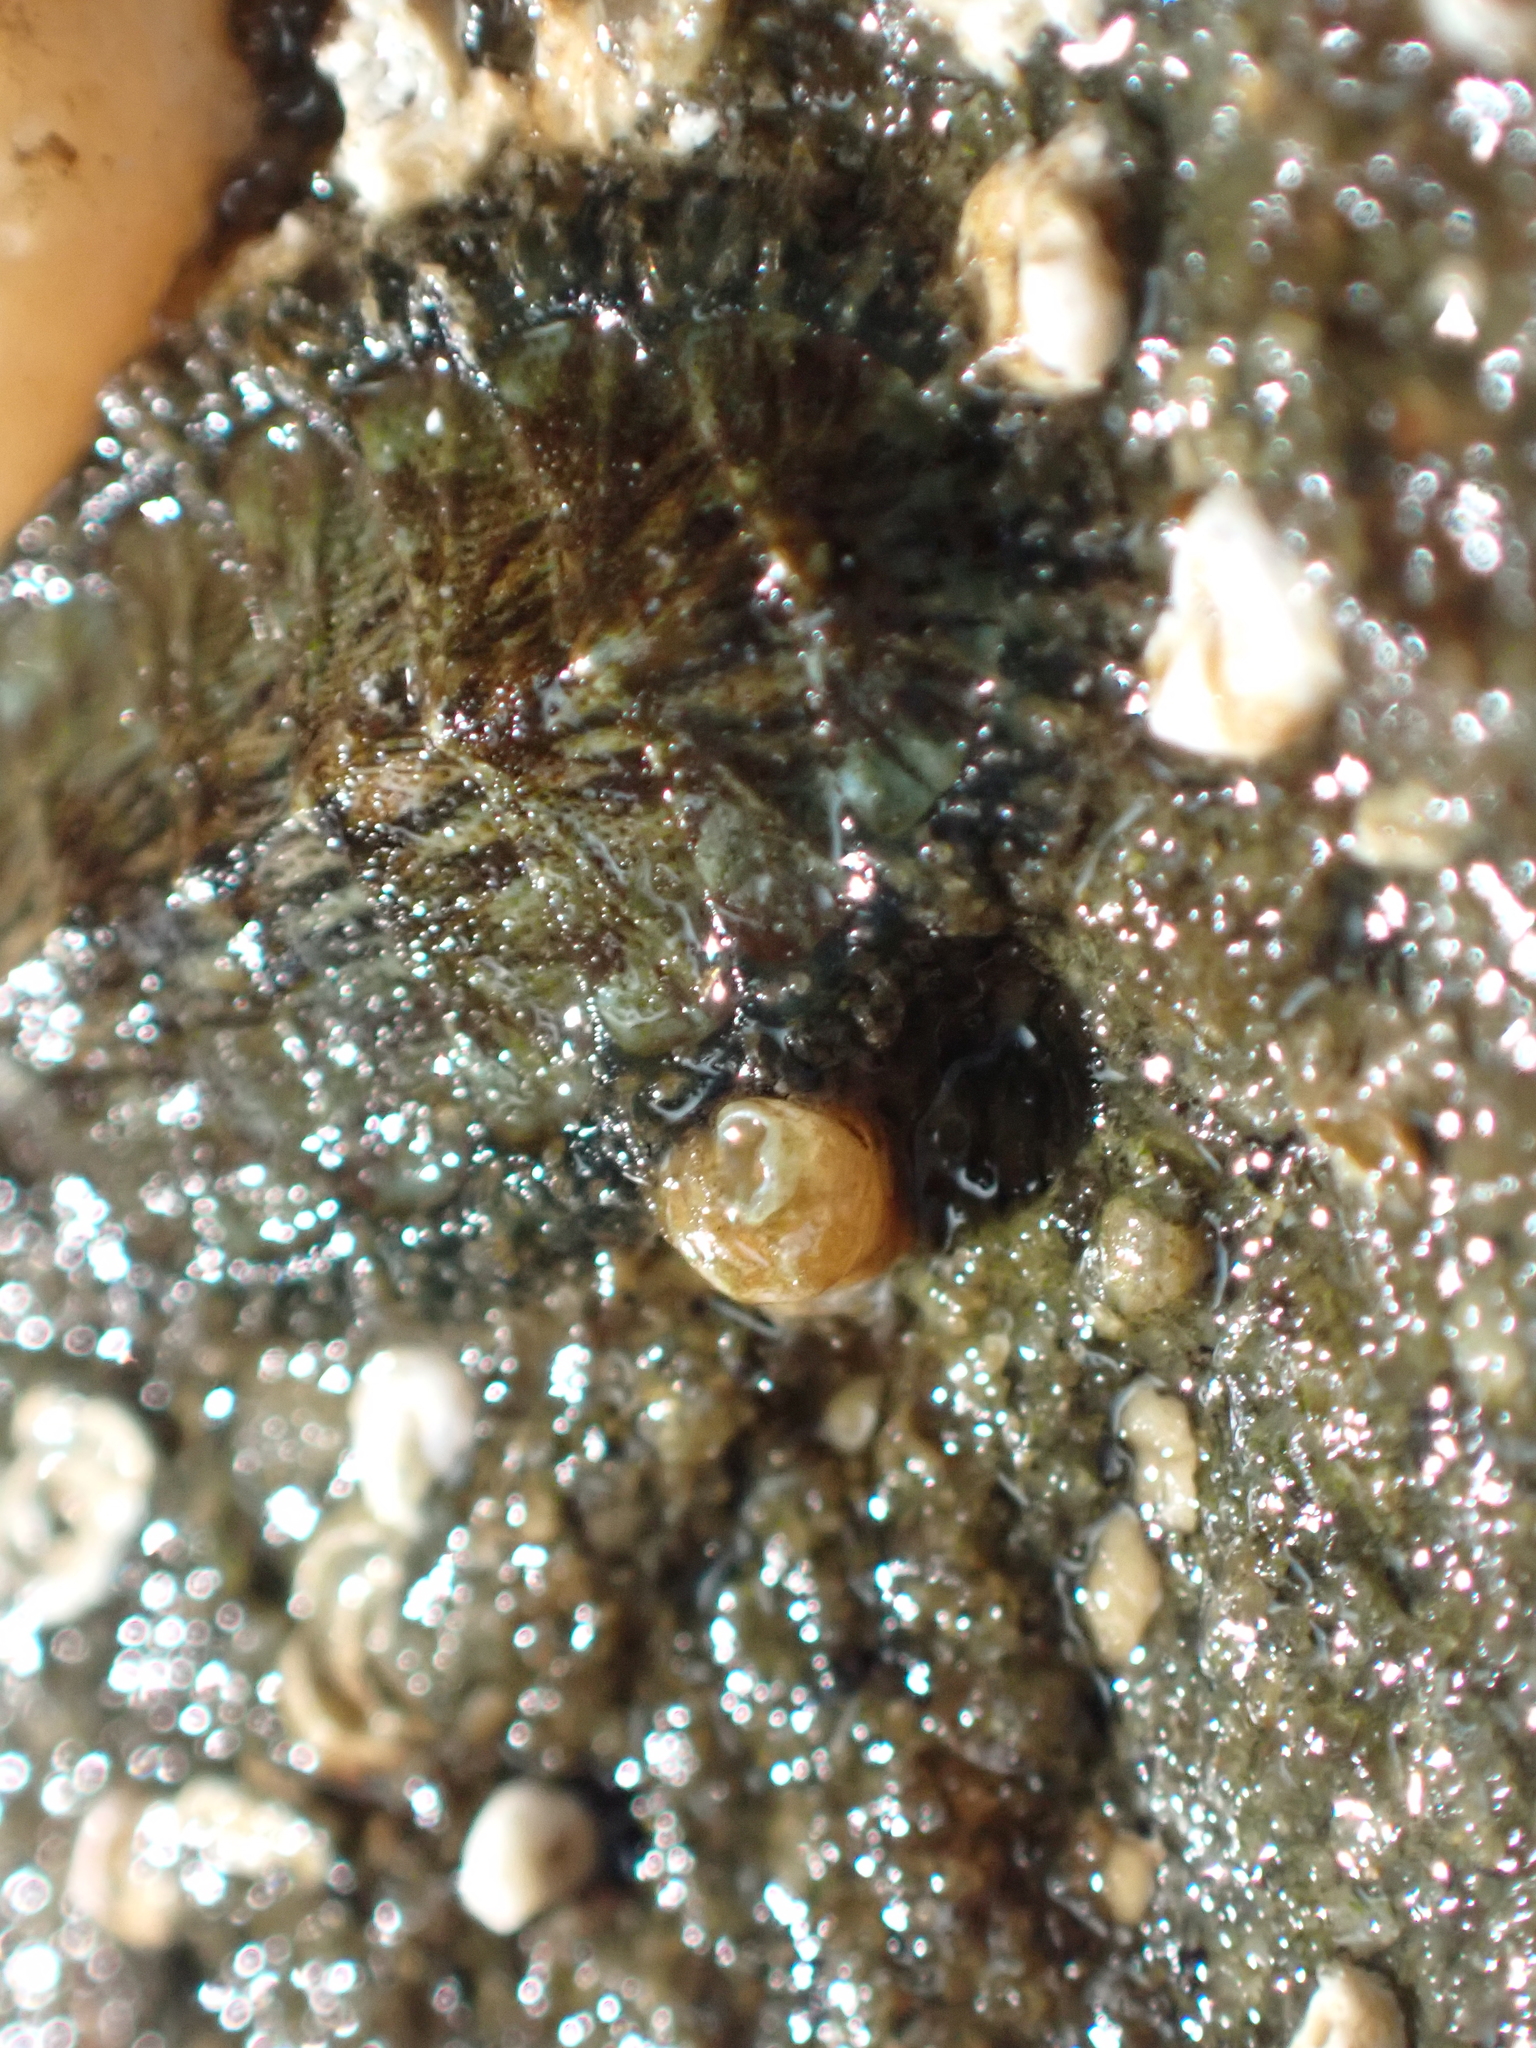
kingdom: Animalia
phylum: Mollusca
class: Polyplacophora
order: Chitonida
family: Mopaliidae
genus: Mopalia
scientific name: Mopalia lignosa
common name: Woody chiton
